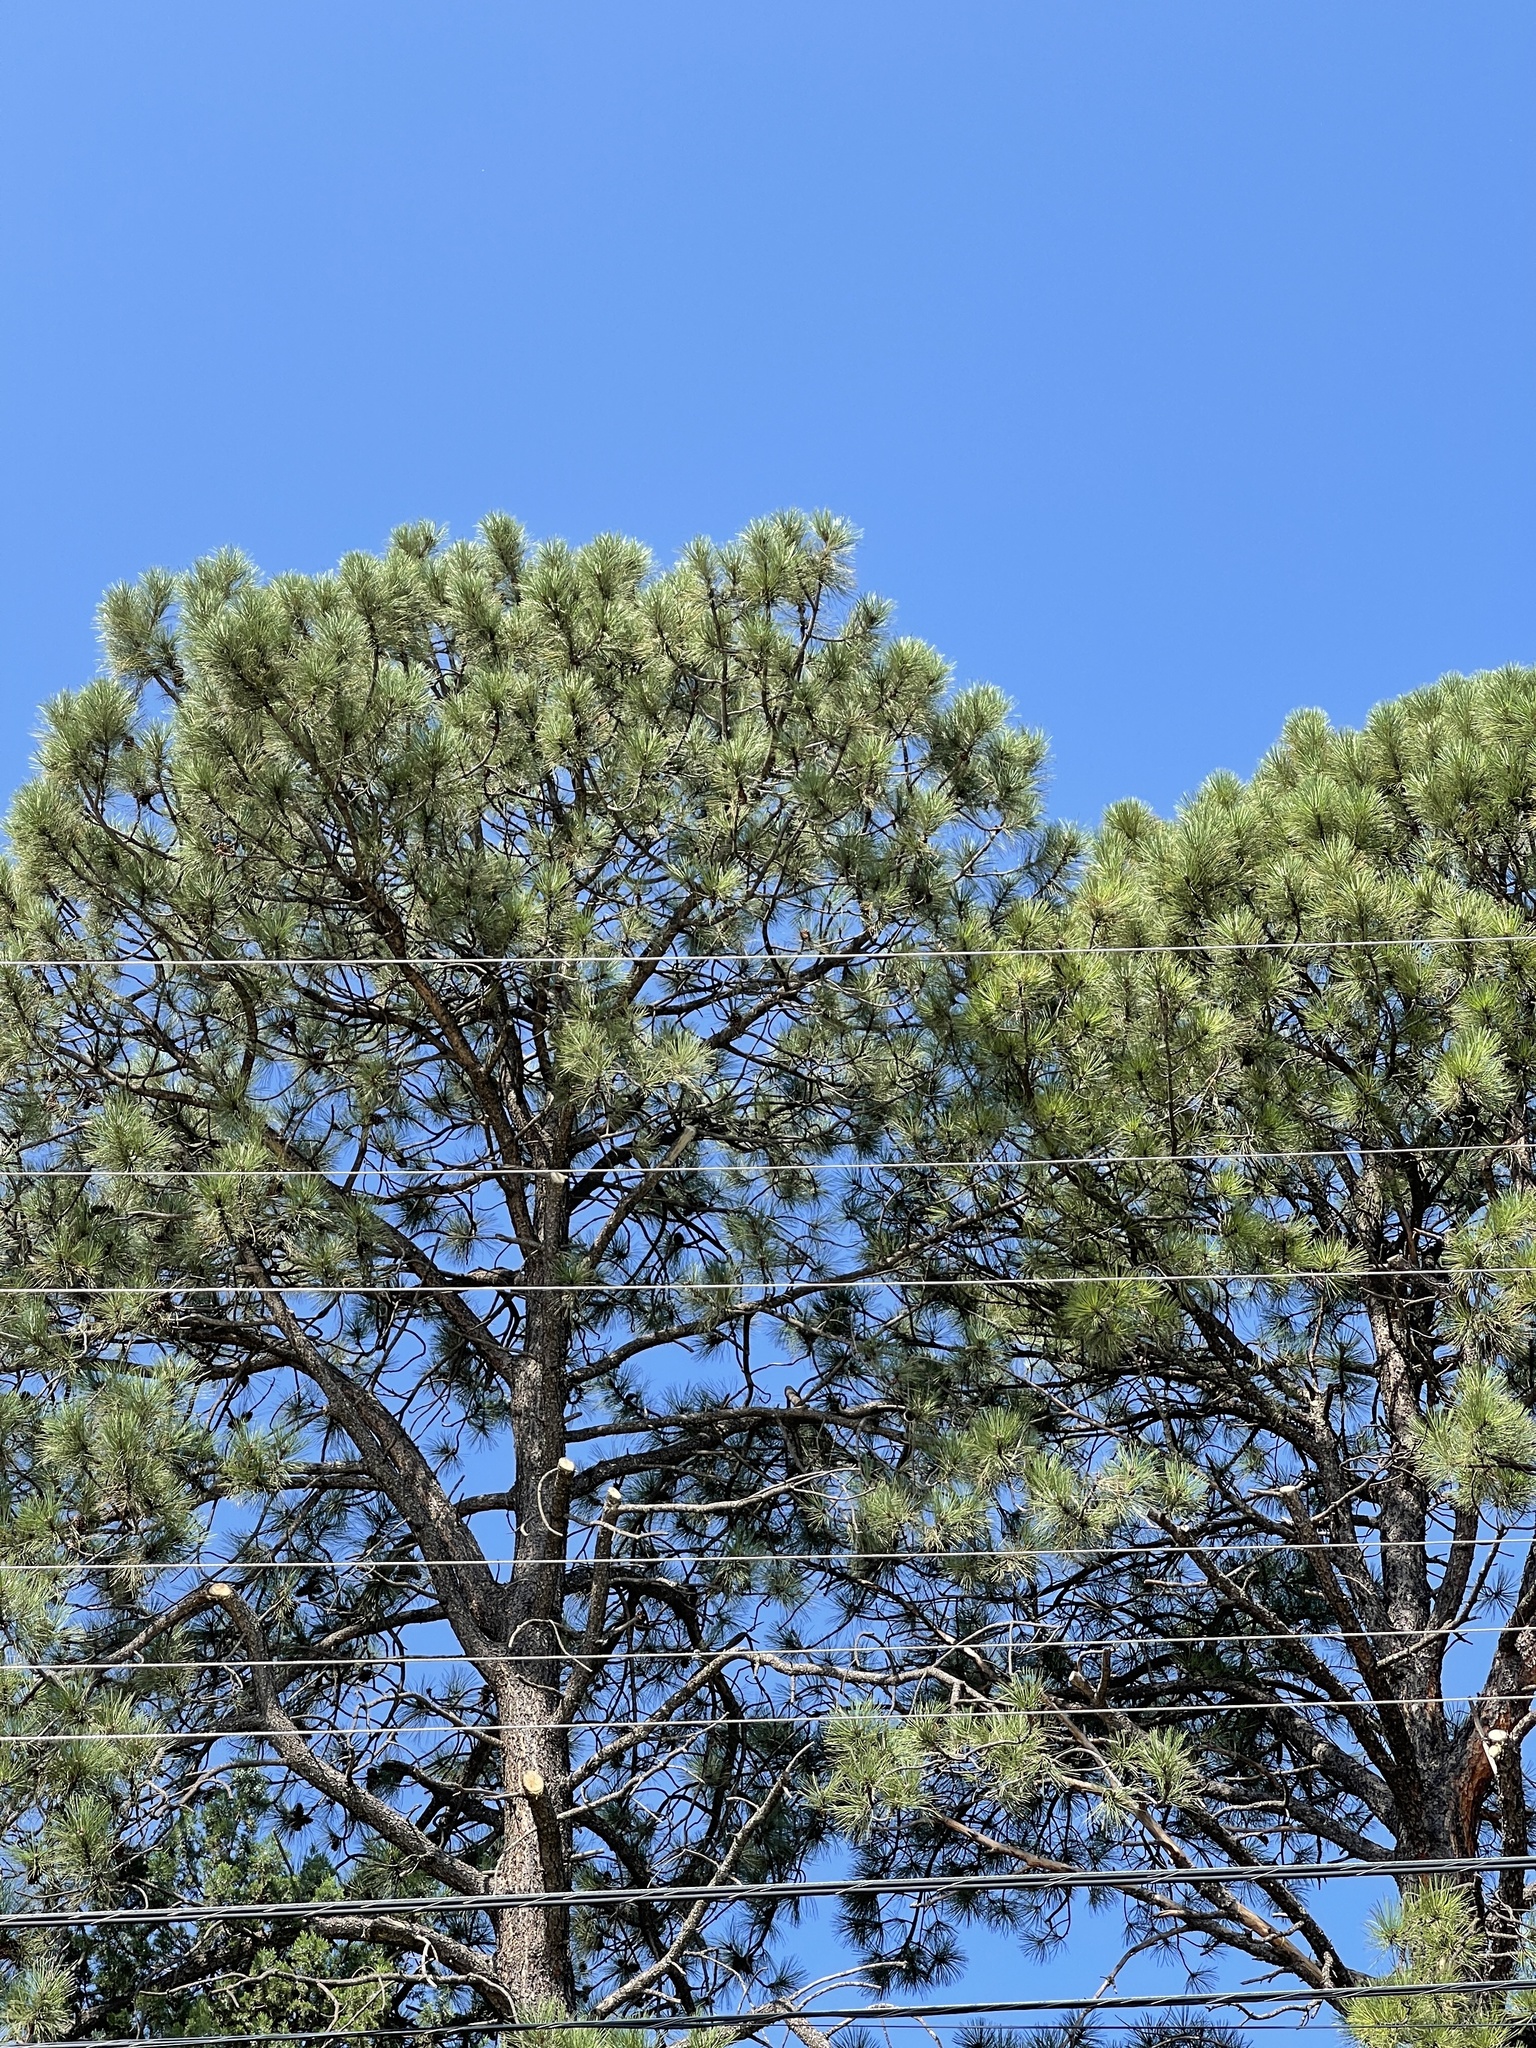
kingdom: Plantae
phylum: Tracheophyta
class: Pinopsida
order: Pinales
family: Pinaceae
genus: Pinus
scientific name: Pinus ponderosa
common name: Western yellow-pine
